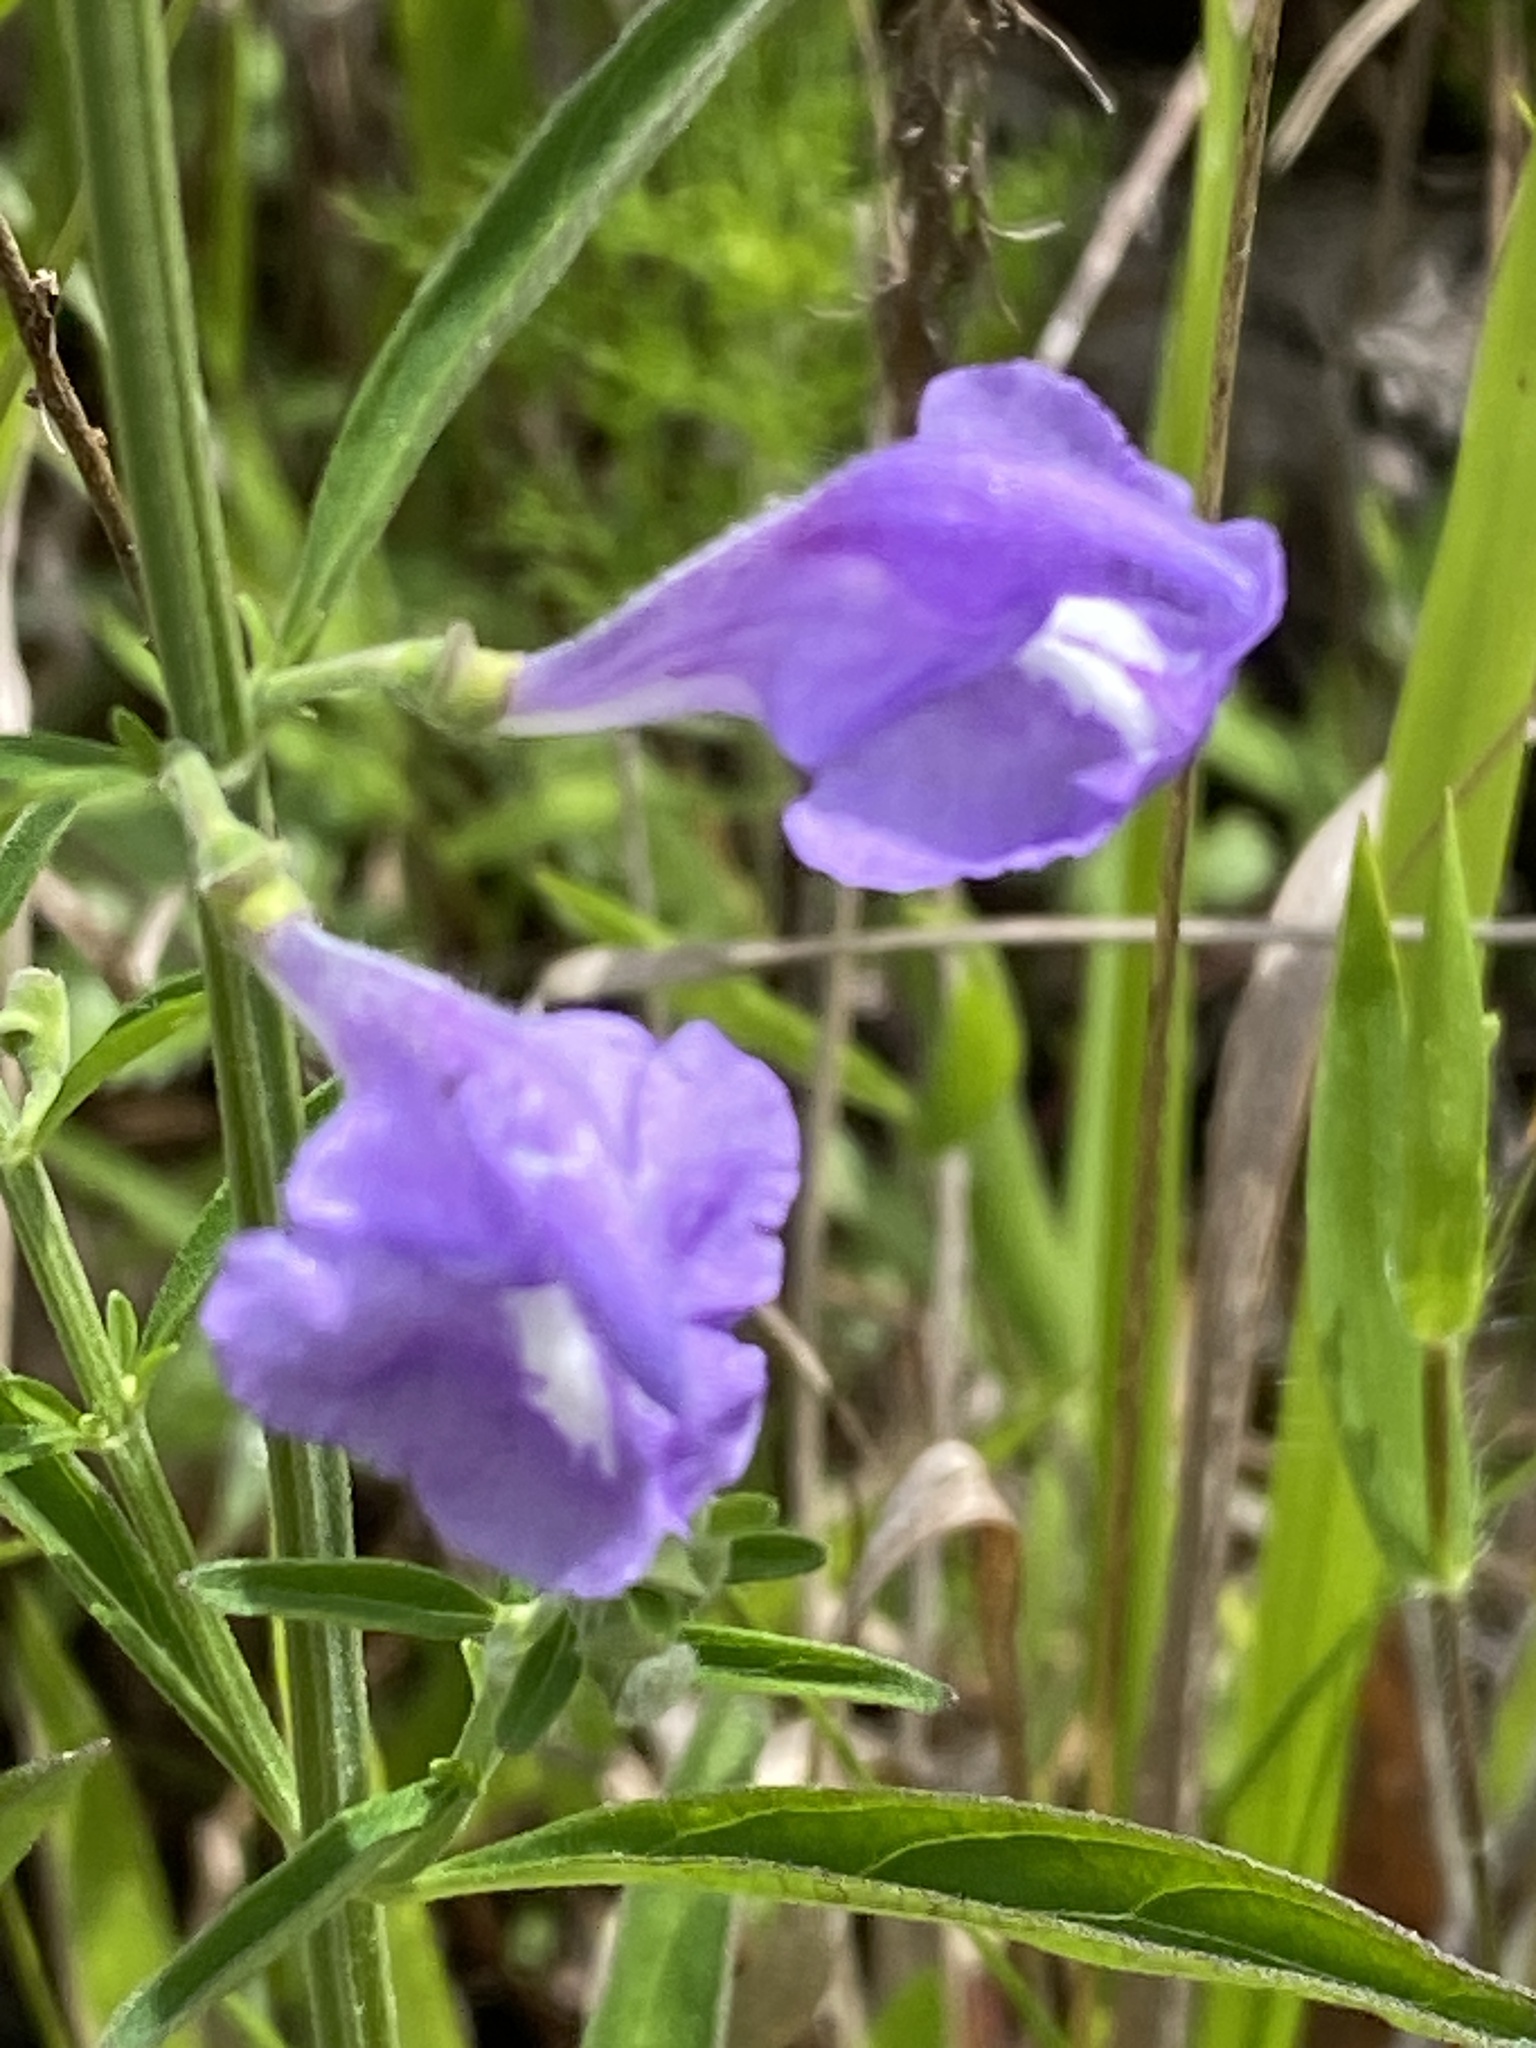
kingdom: Plantae
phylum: Tracheophyta
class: Magnoliopsida
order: Lamiales
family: Lamiaceae
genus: Scutellaria
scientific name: Scutellaria integrifolia
